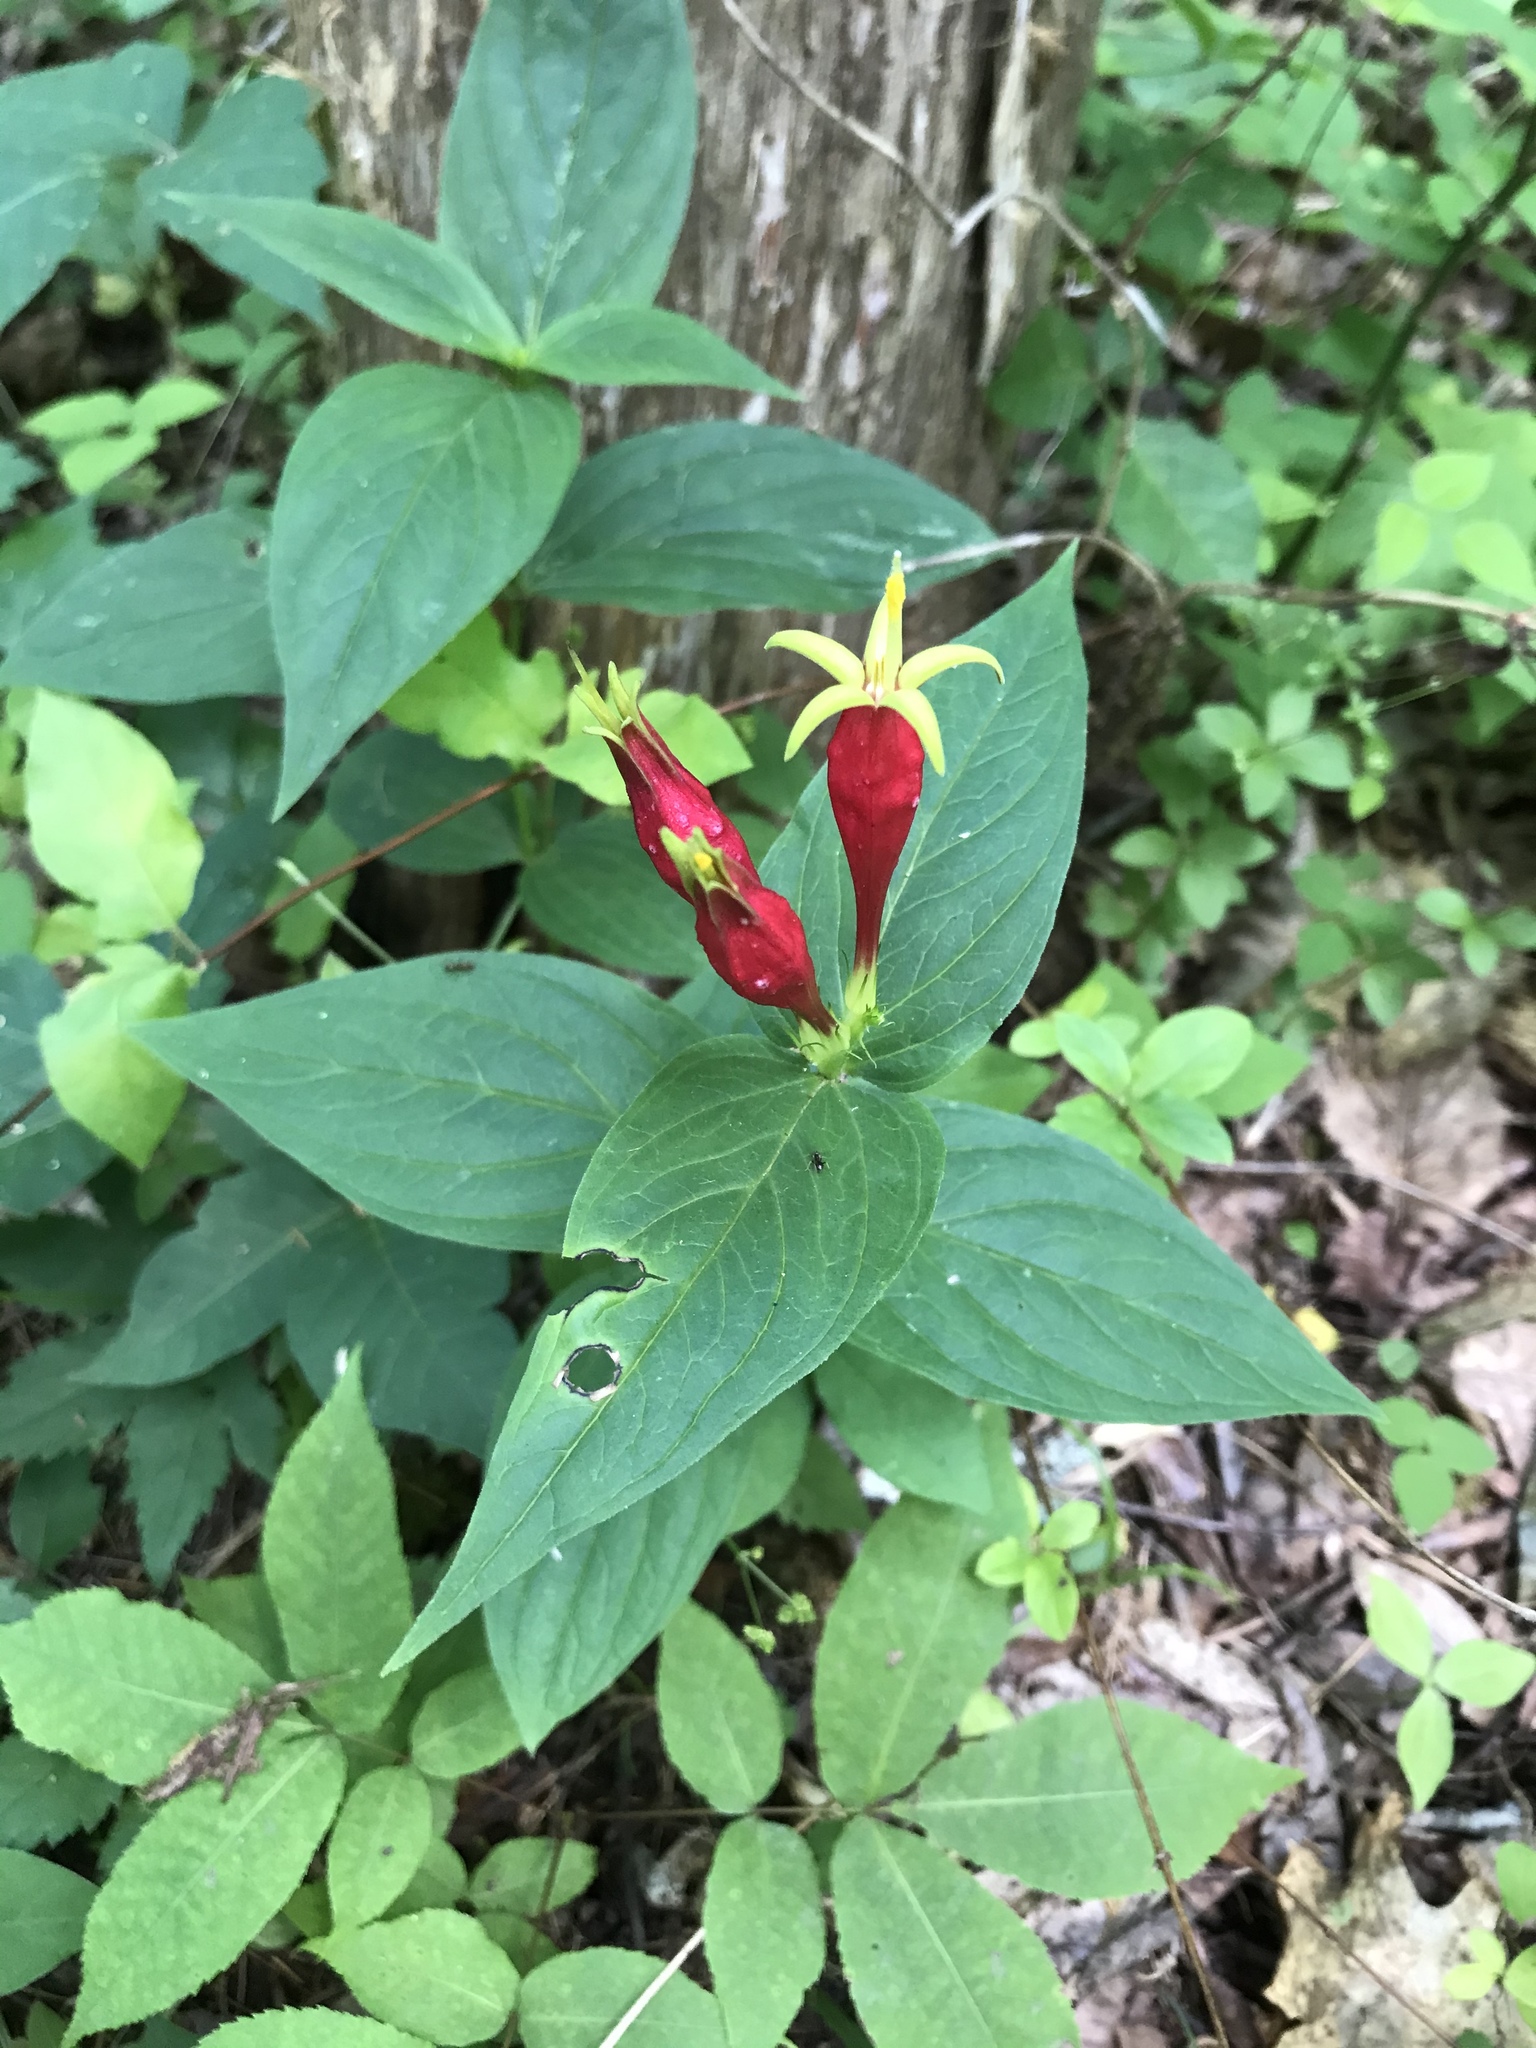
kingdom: Plantae
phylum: Tracheophyta
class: Magnoliopsida
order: Gentianales
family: Loganiaceae
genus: Spigelia
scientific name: Spigelia marilandica
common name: Indian-pink
